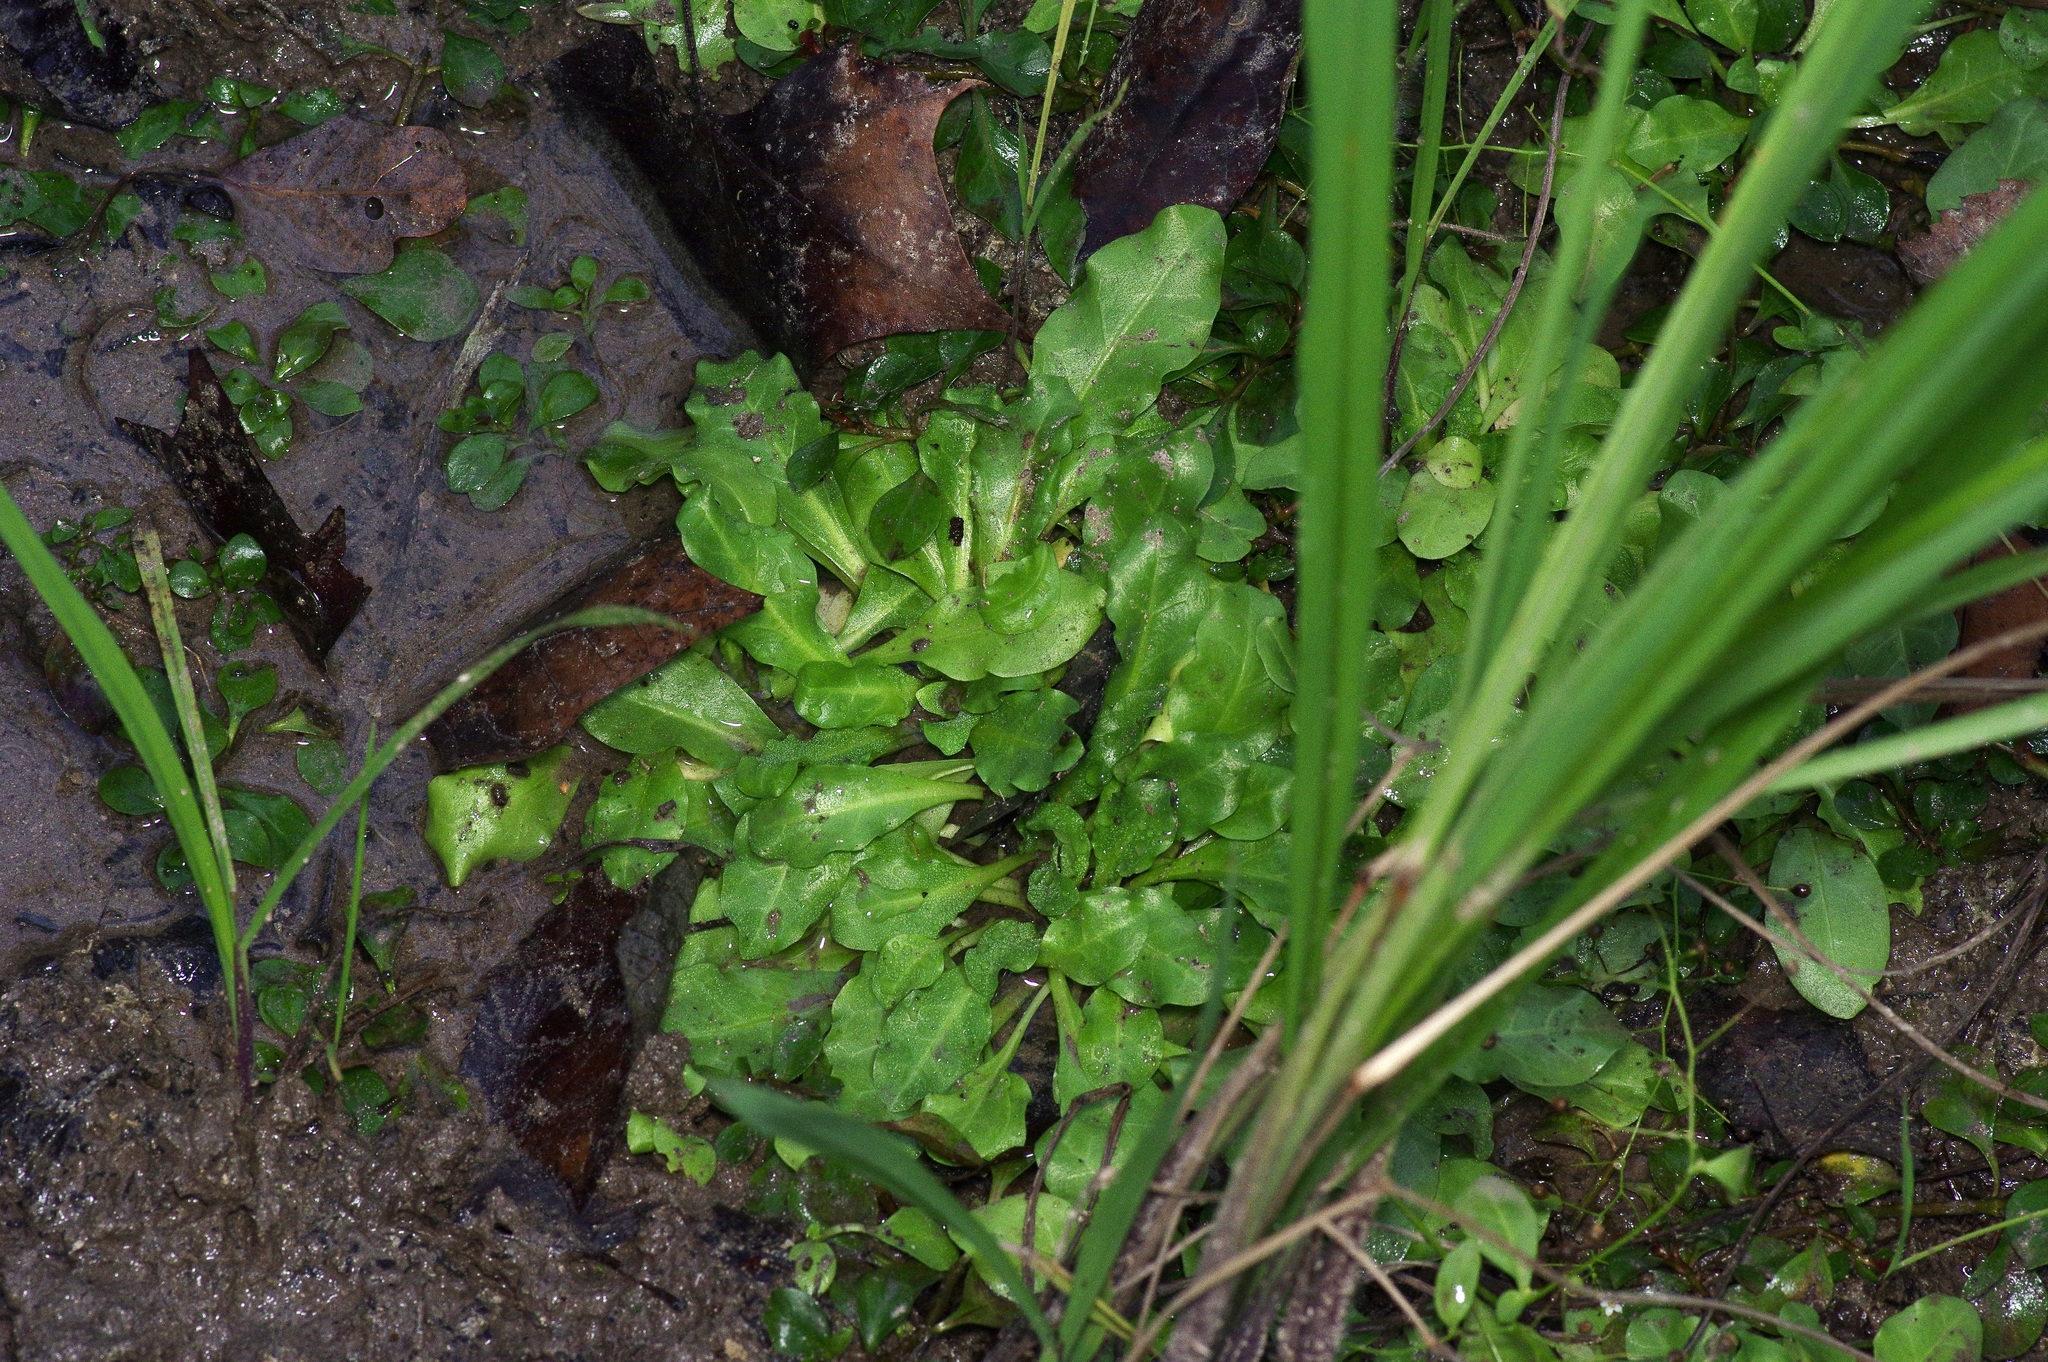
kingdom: Plantae
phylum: Tracheophyta
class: Magnoliopsida
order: Ericales
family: Primulaceae
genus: Samolus
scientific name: Samolus parviflorus
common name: False water pimpernel
